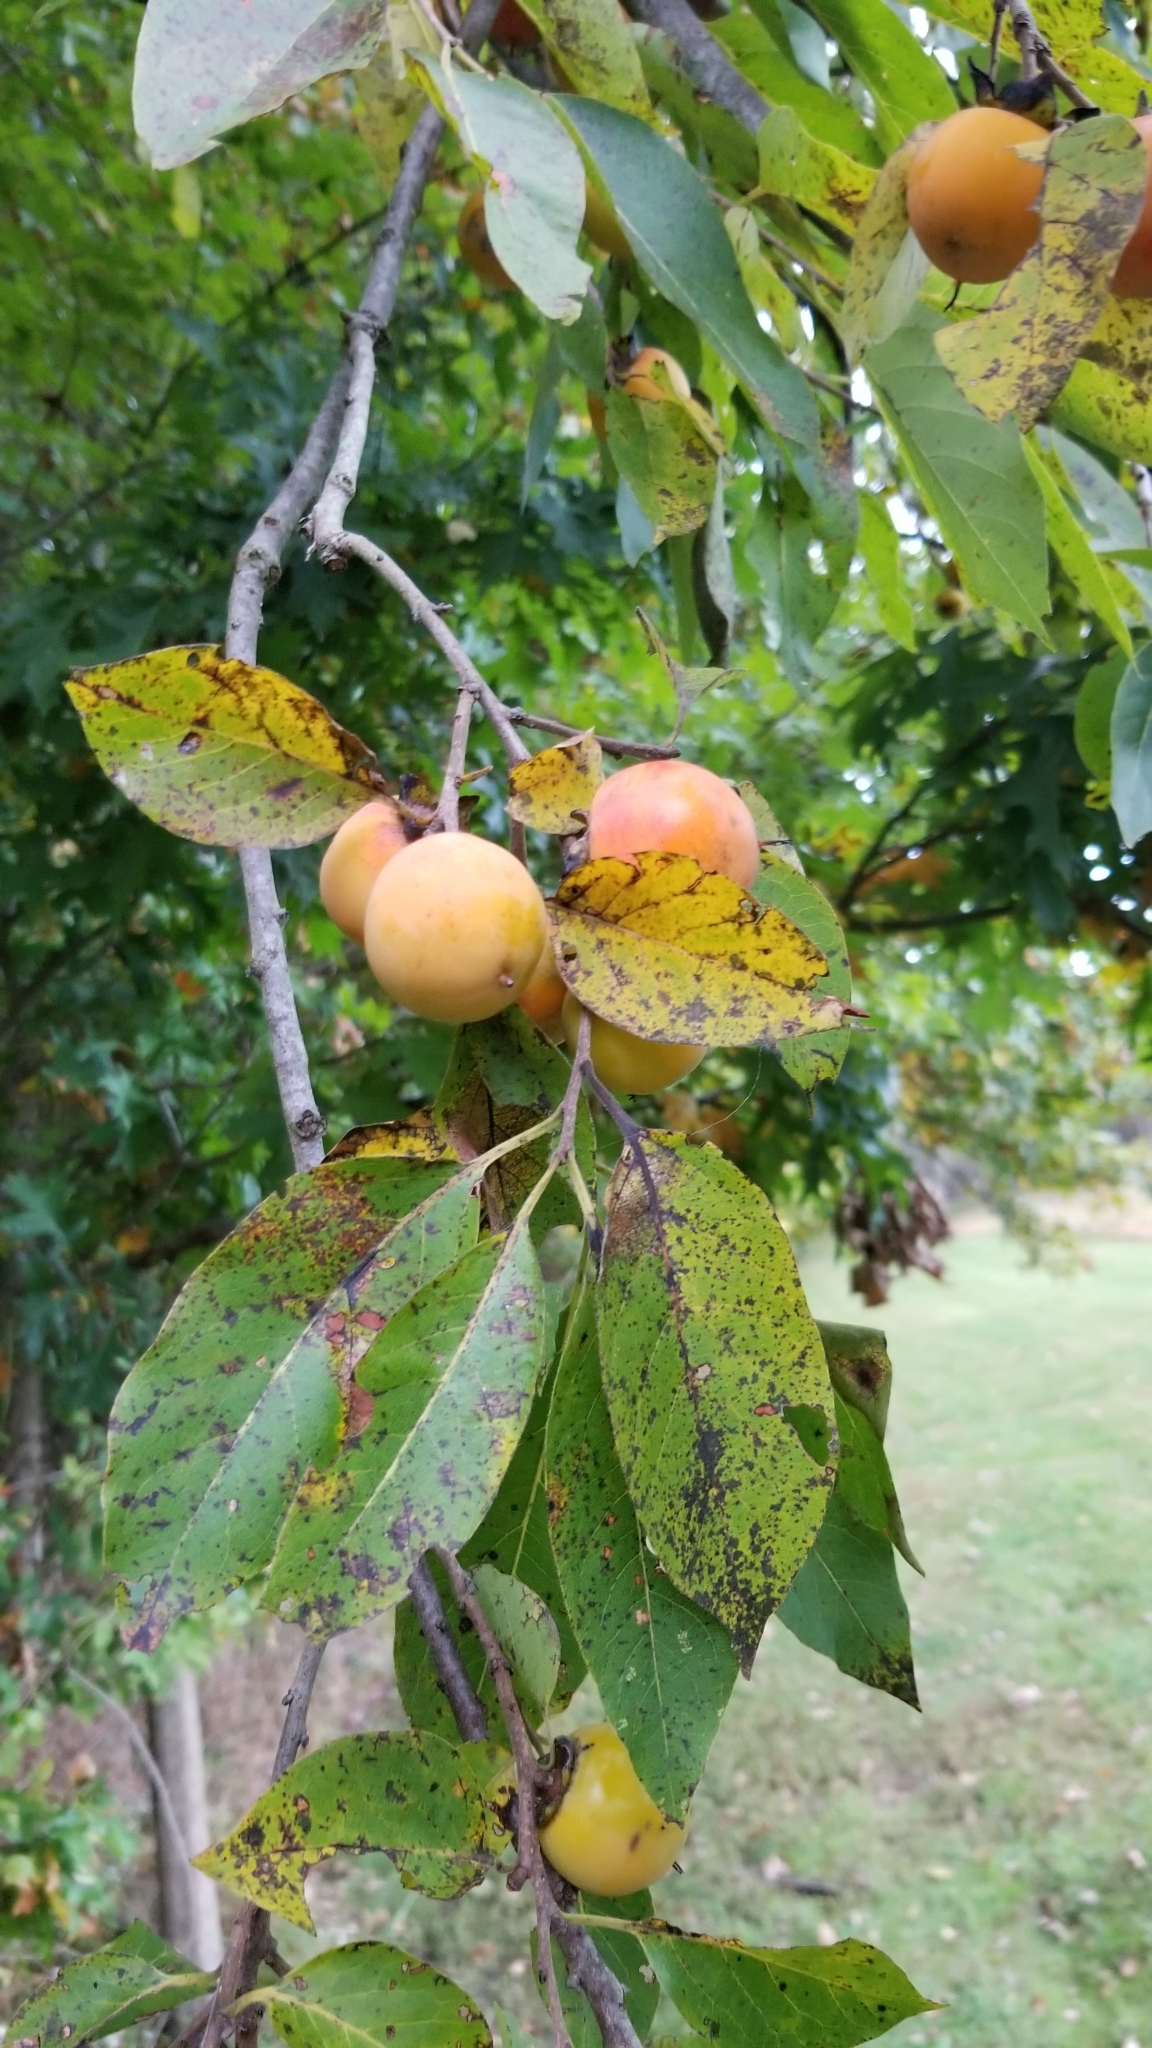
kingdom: Plantae
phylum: Tracheophyta
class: Magnoliopsida
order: Ericales
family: Ebenaceae
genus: Diospyros
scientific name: Diospyros virginiana
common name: Persimmon
